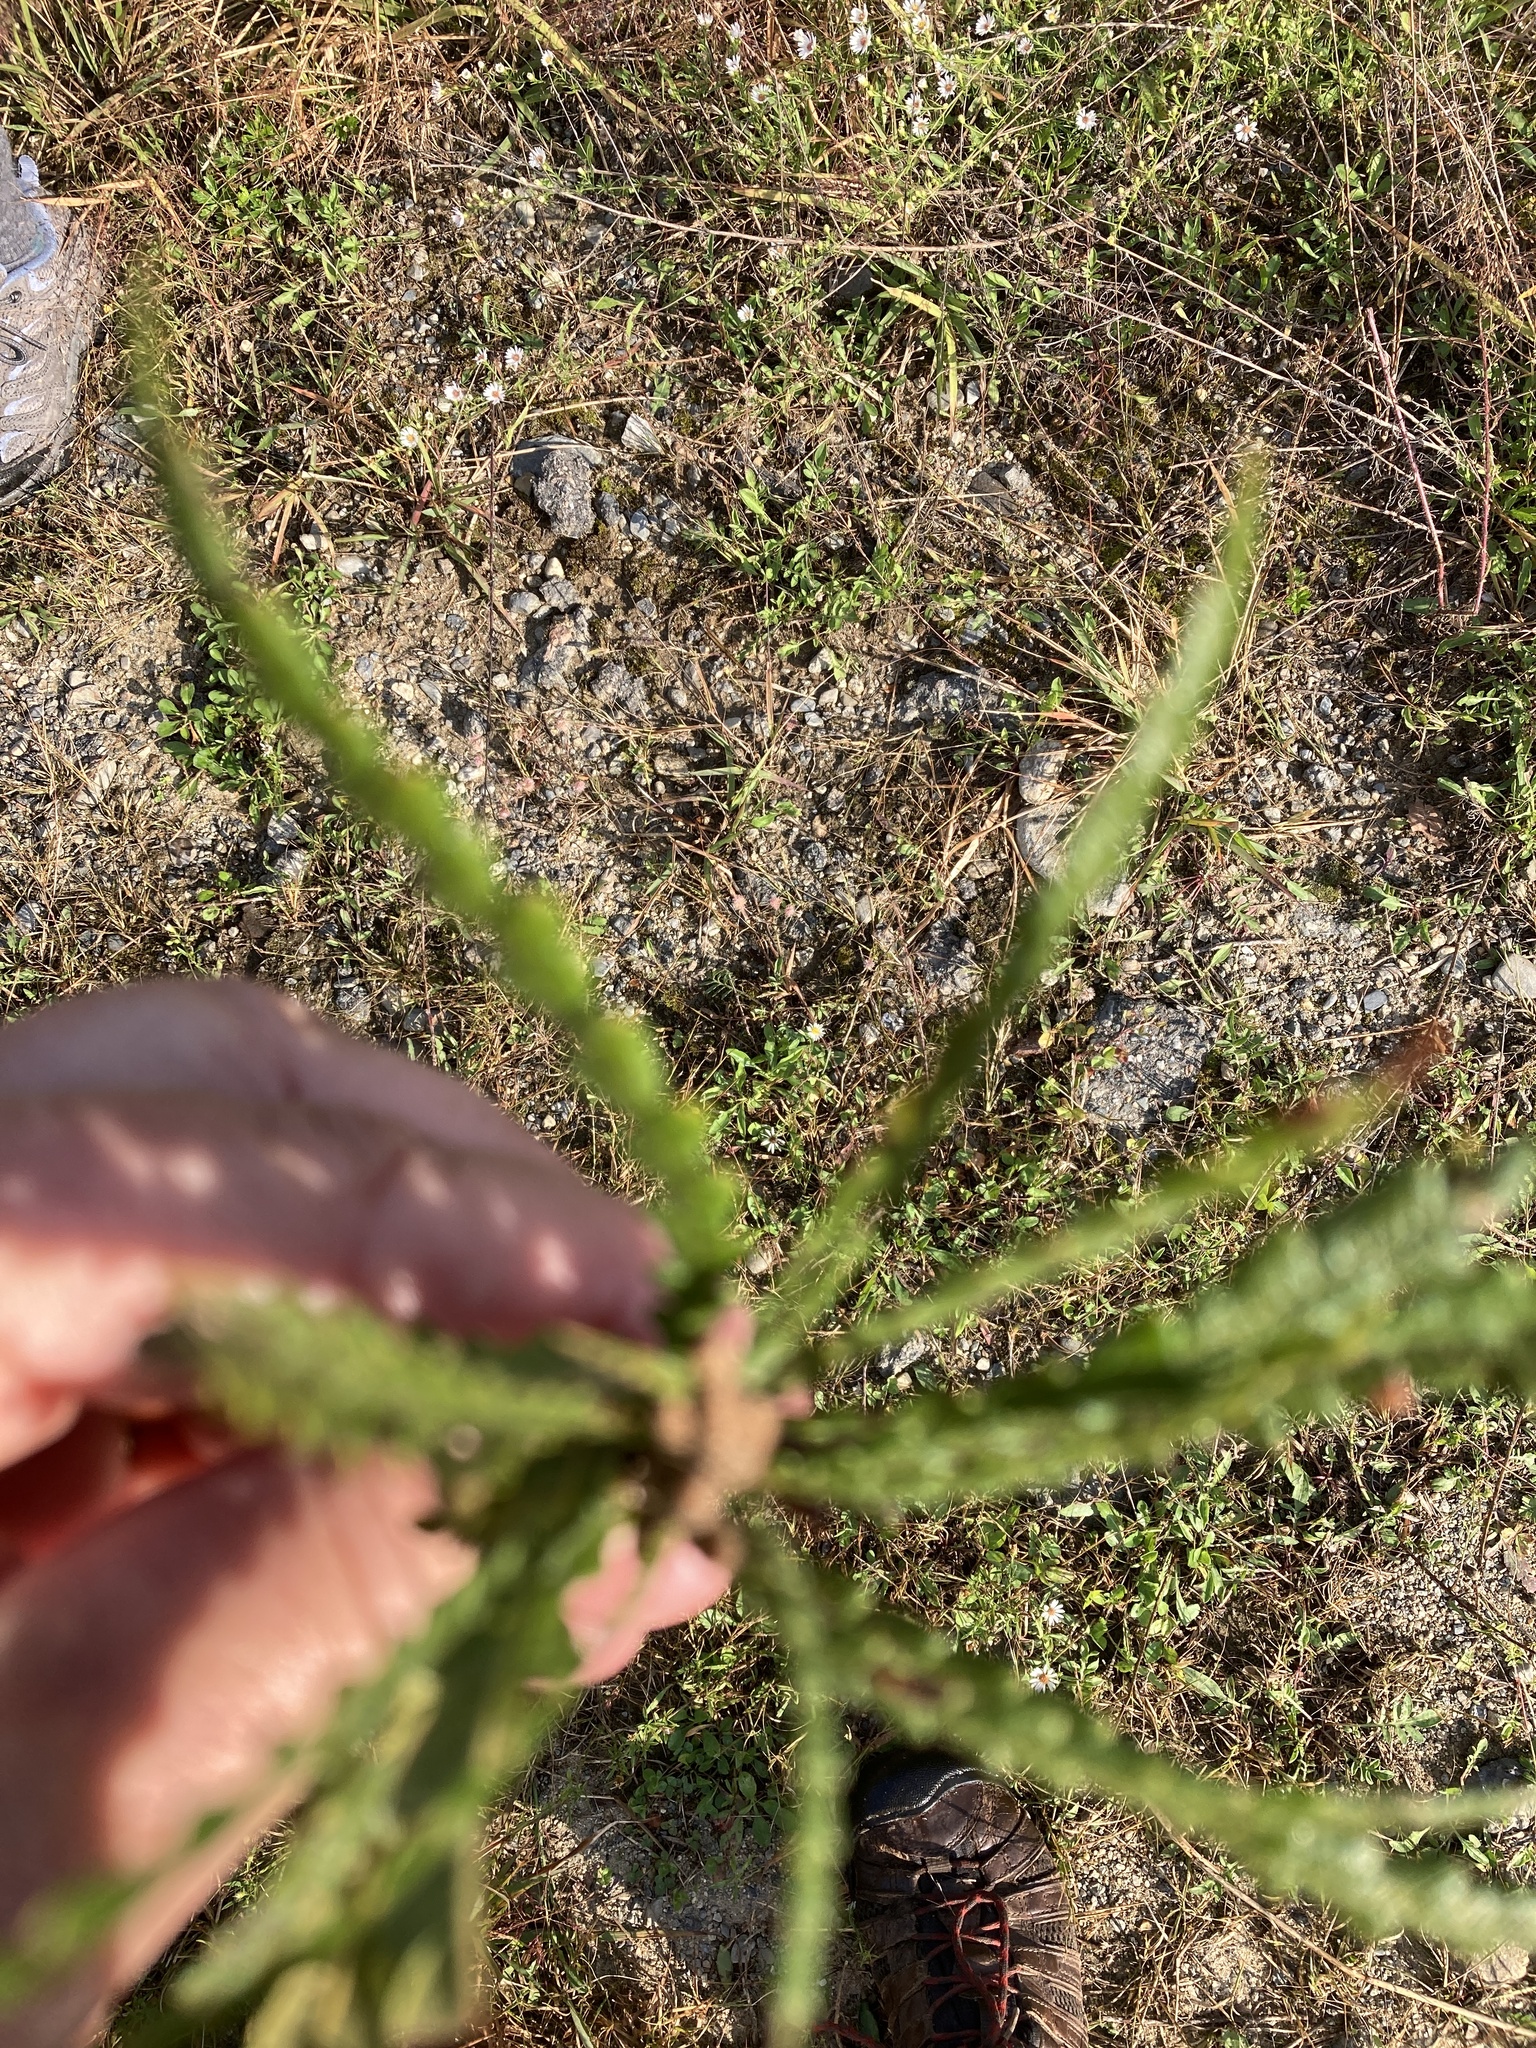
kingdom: Plantae
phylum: Tracheophyta
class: Magnoliopsida
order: Fagales
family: Myricaceae
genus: Comptonia
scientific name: Comptonia peregrina
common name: Sweet-fern
